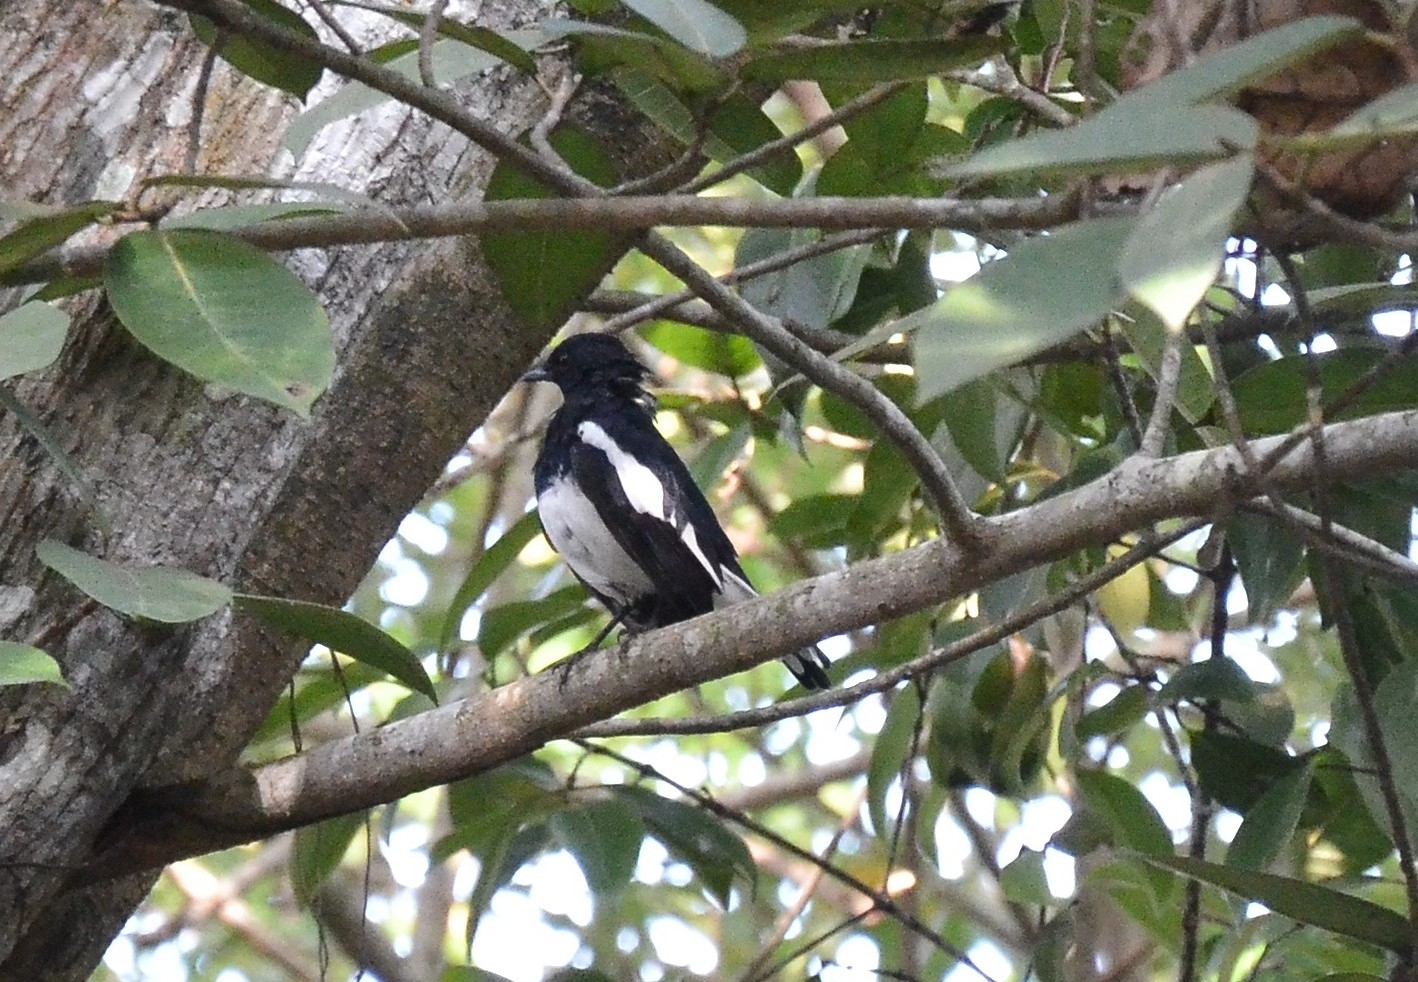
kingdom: Animalia
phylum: Chordata
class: Aves
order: Passeriformes
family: Muscicapidae
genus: Copsychus
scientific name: Copsychus saularis
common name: Oriental magpie-robin
